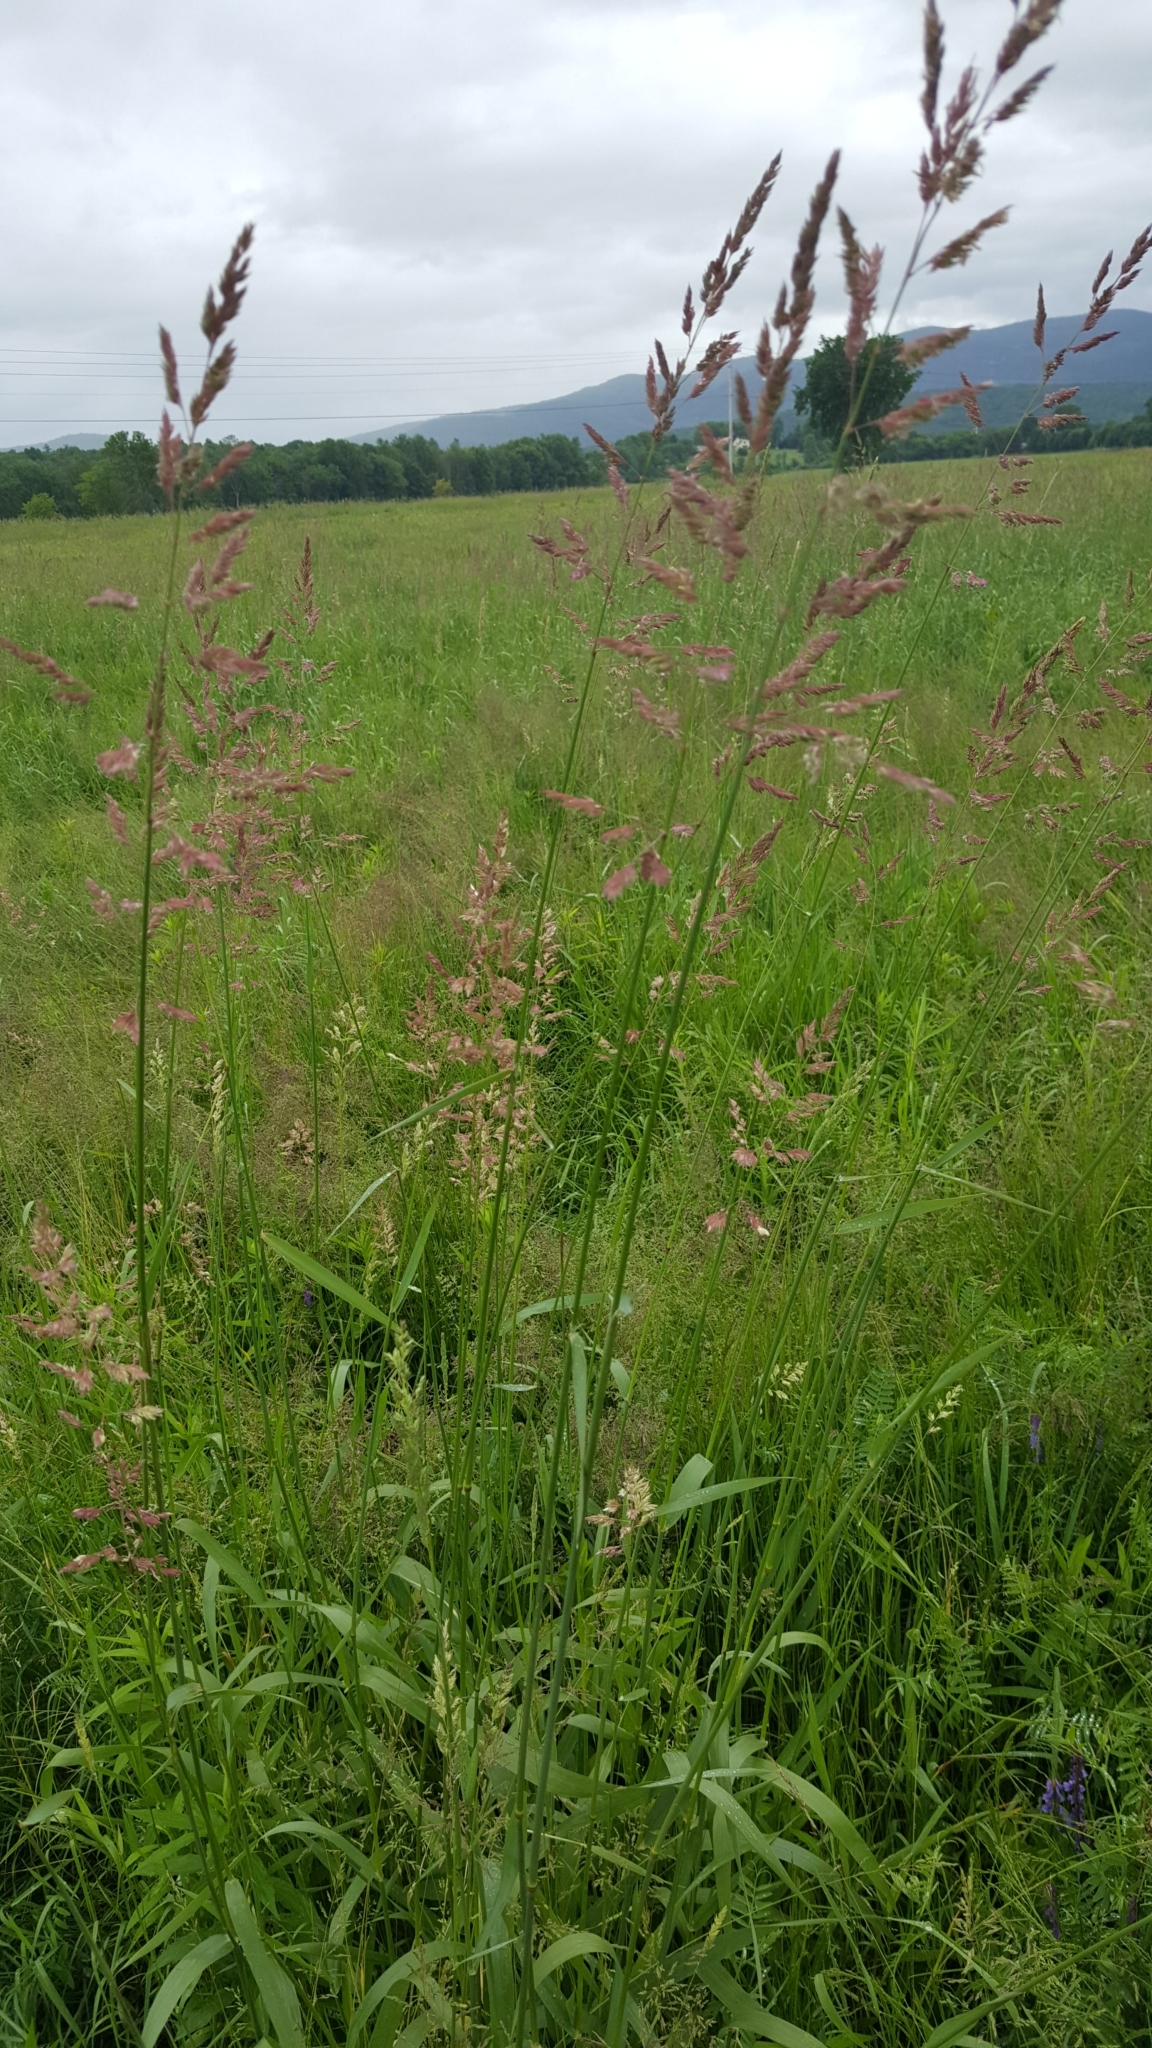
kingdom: Plantae
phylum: Tracheophyta
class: Liliopsida
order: Poales
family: Poaceae
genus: Phalaris
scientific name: Phalaris arundinacea
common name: Reed canary-grass
